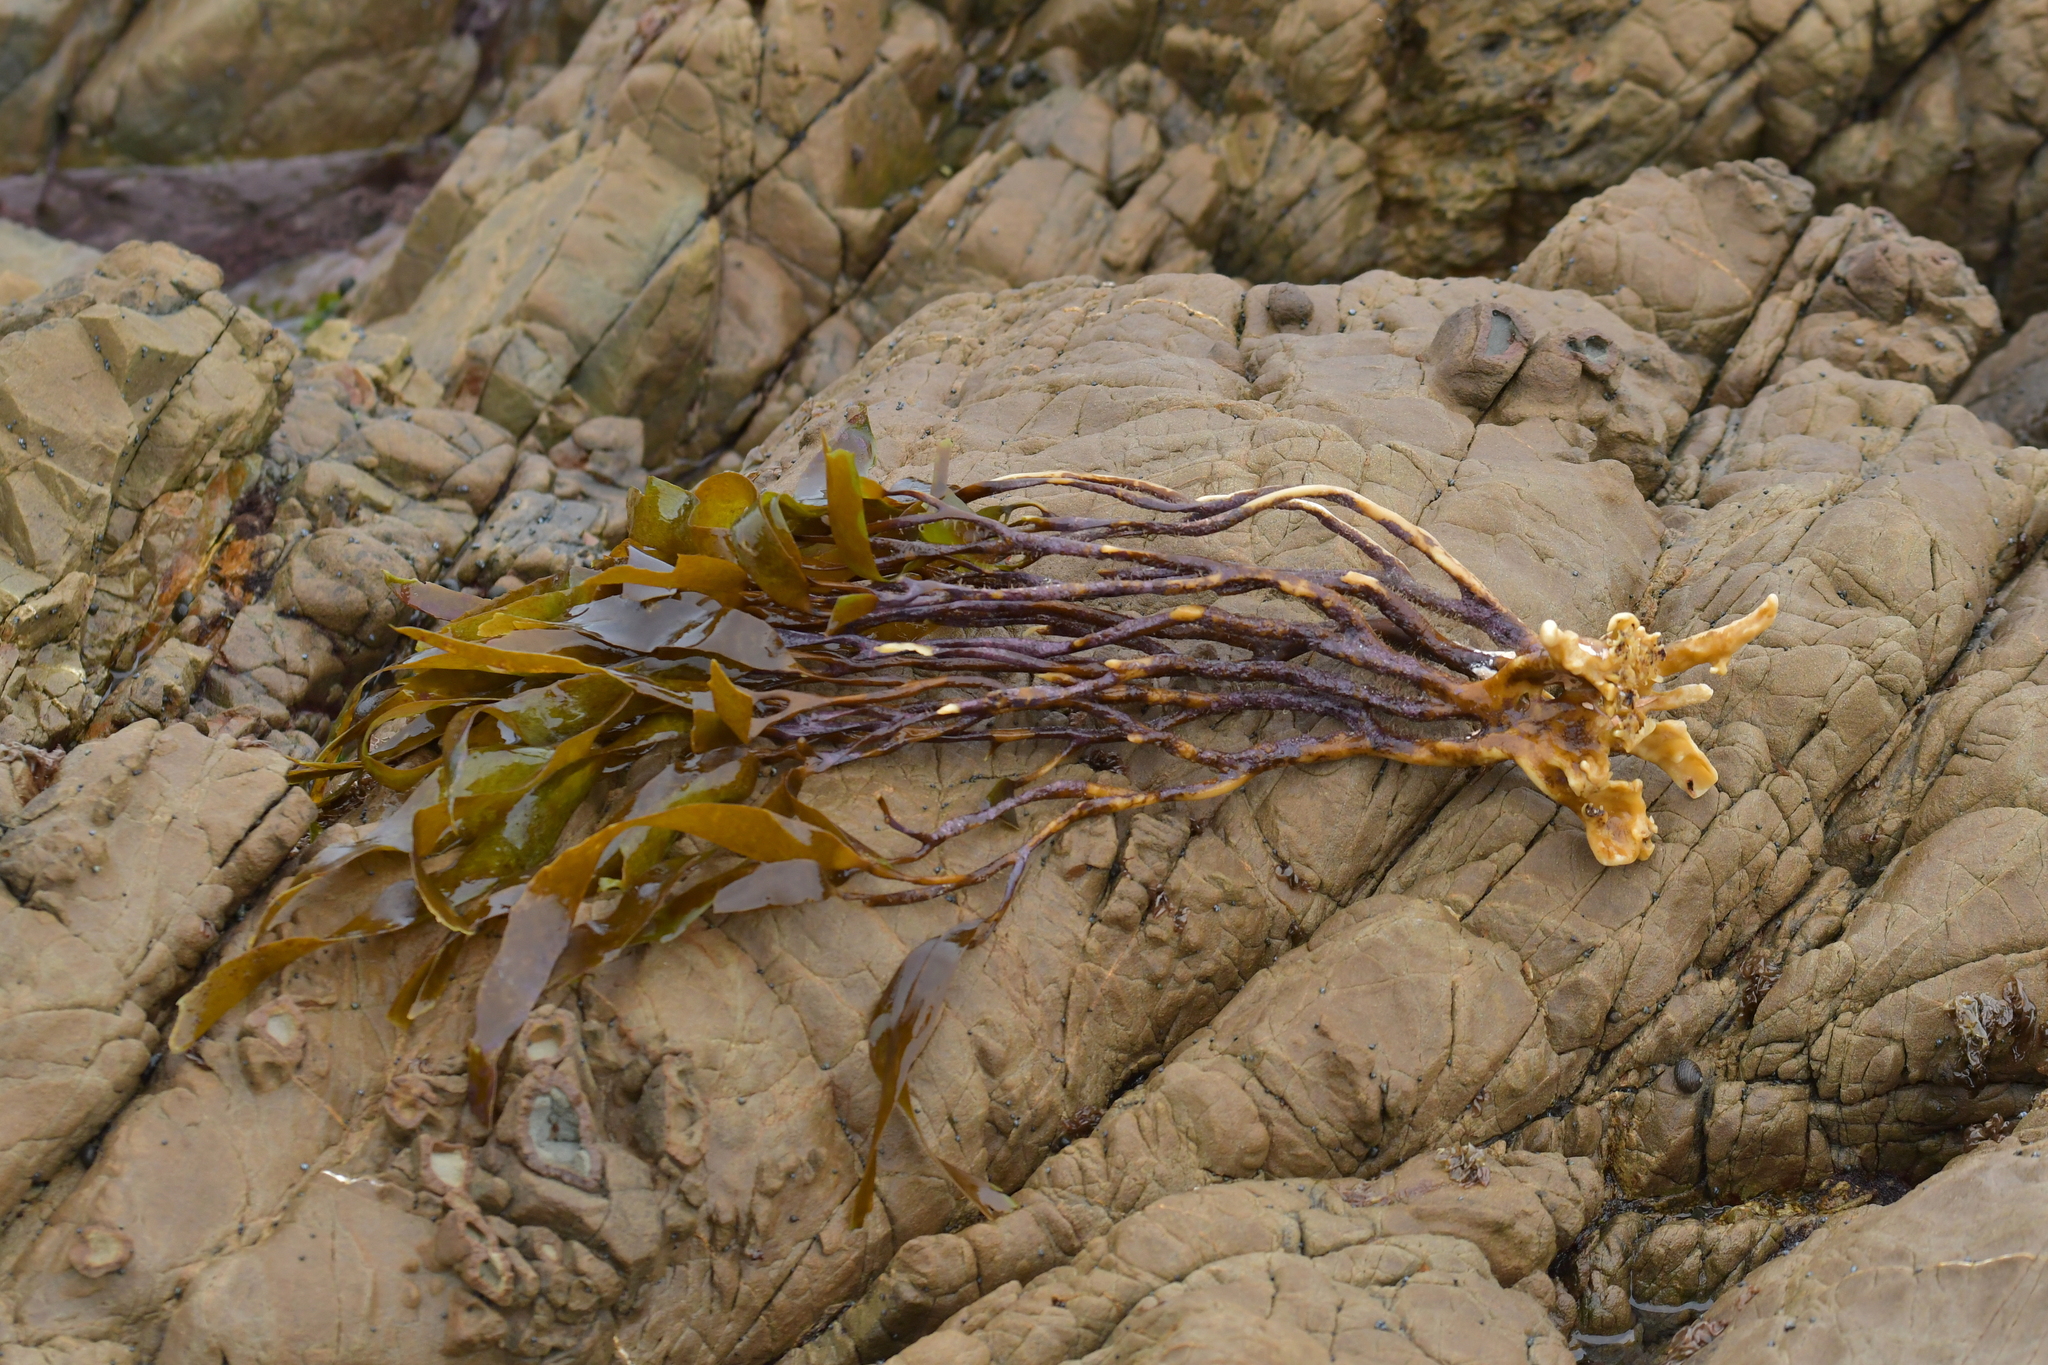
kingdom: Chromista
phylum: Ochrophyta
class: Phaeophyceae
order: Laminariales
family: Lessoniaceae
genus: Lessonia
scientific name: Lessonia variegata
